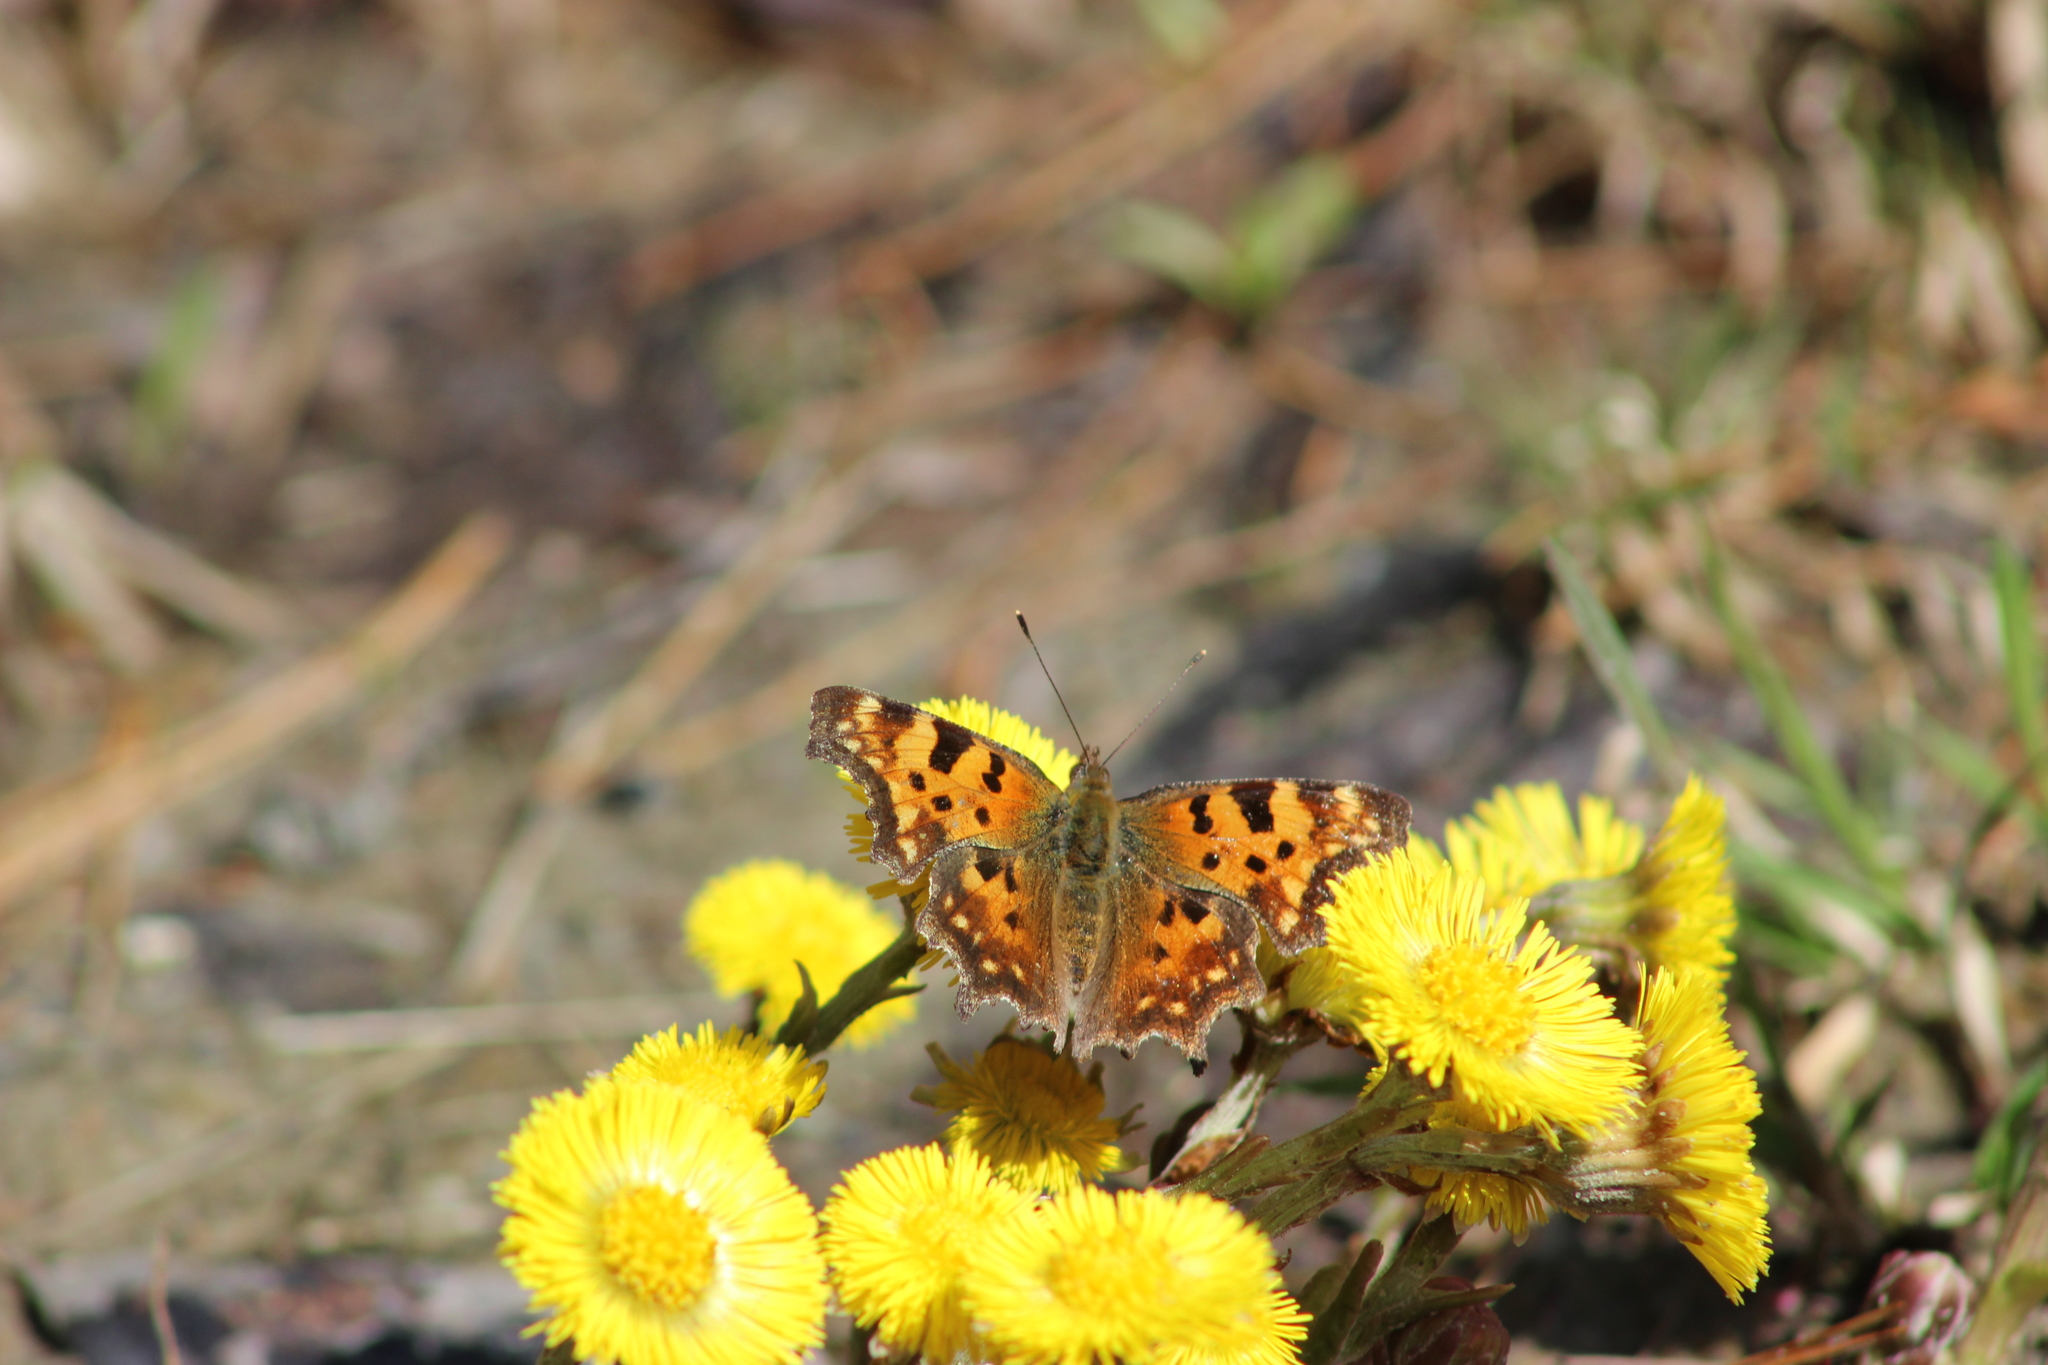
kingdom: Animalia
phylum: Arthropoda
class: Insecta
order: Lepidoptera
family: Nymphalidae
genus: Polygonia
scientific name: Polygonia c-album
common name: Comma
